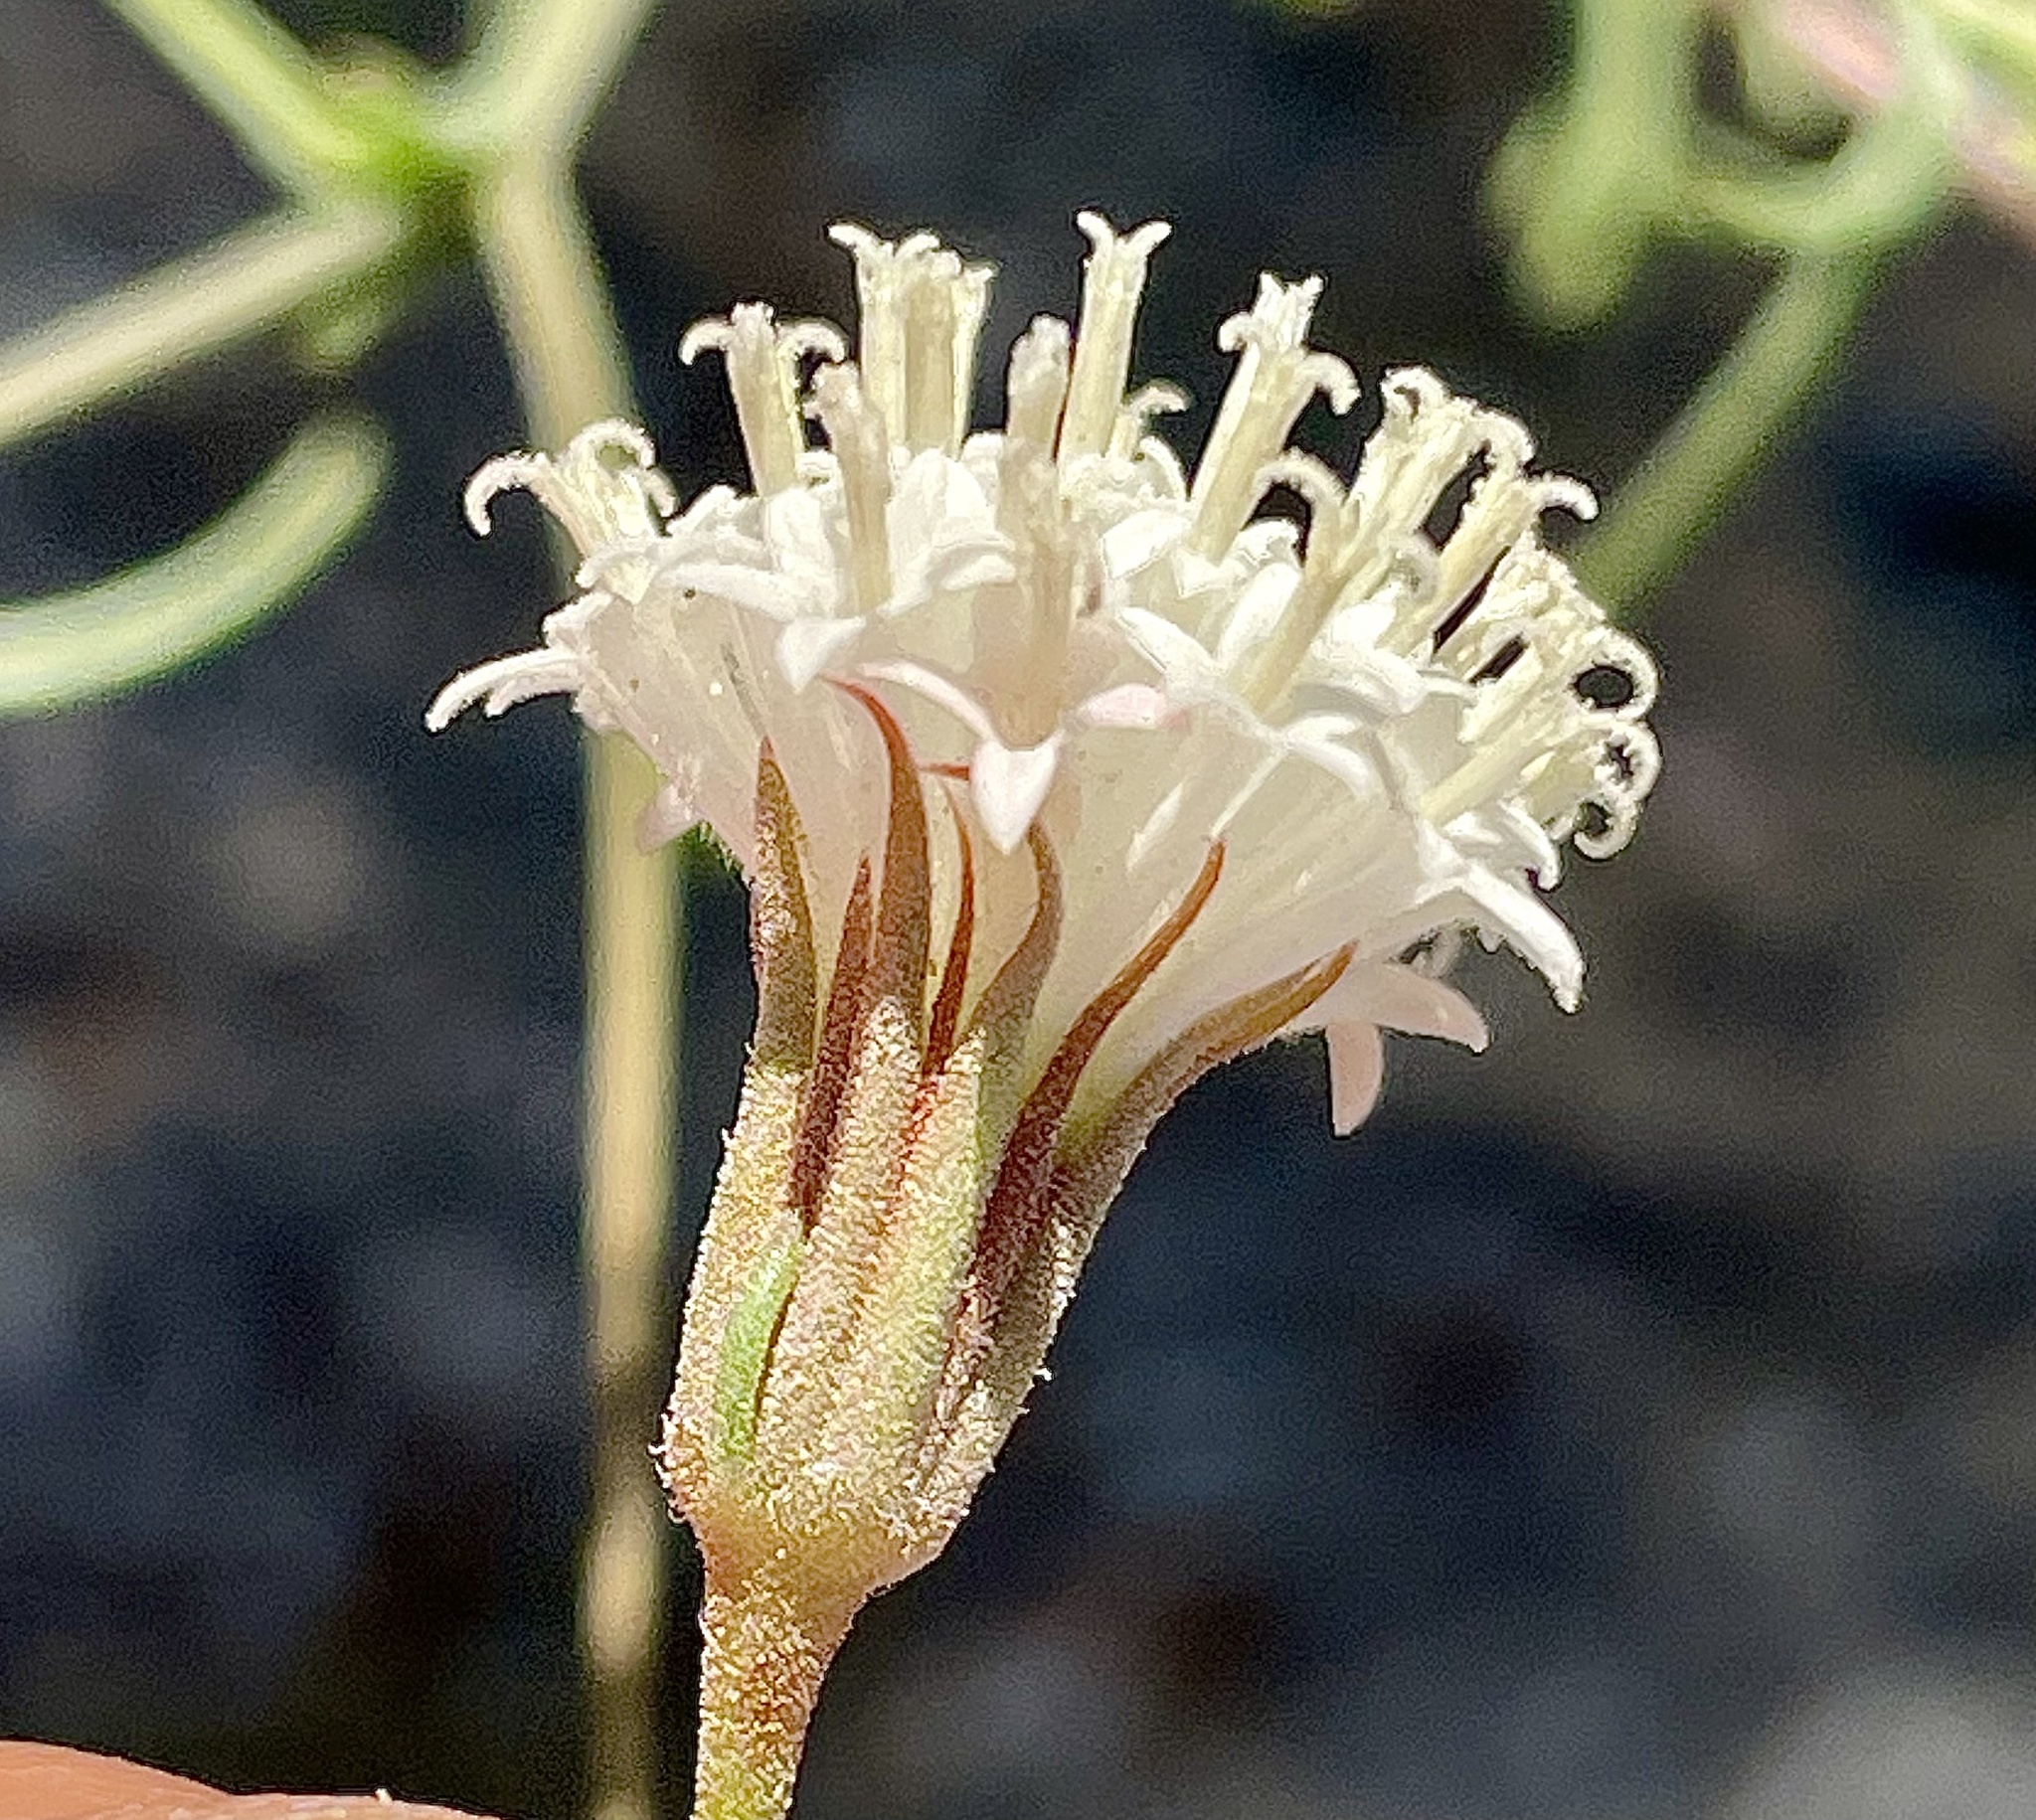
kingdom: Plantae
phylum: Tracheophyta
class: Magnoliopsida
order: Asterales
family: Asteraceae
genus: Chaenactis
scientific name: Chaenactis carphoclinia
